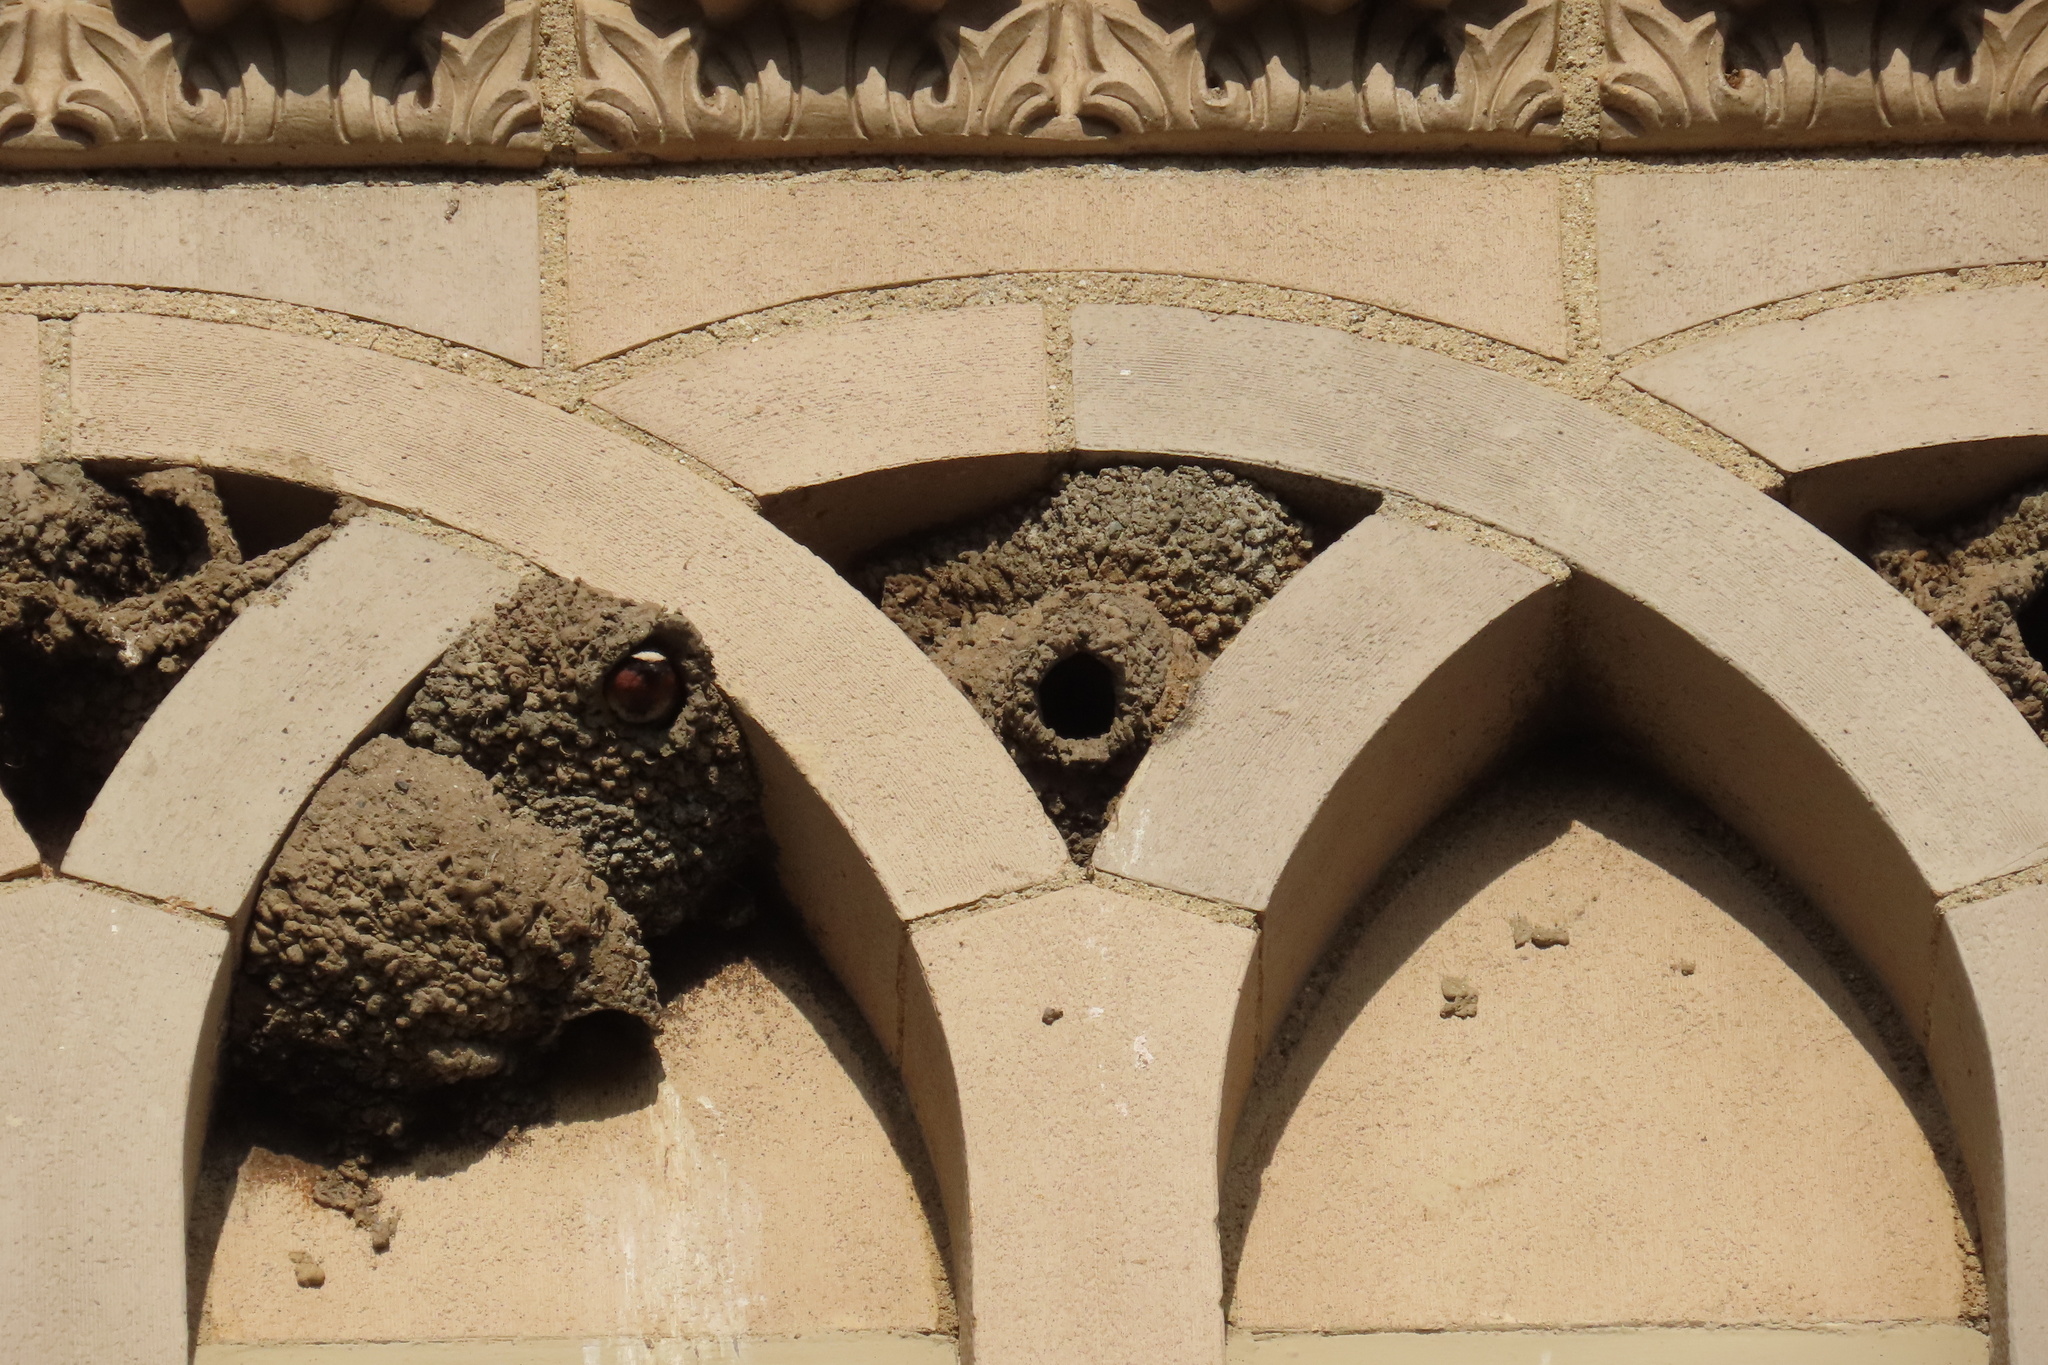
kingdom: Animalia
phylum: Chordata
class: Aves
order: Passeriformes
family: Hirundinidae
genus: Petrochelidon
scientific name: Petrochelidon pyrrhonota
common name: American cliff swallow
